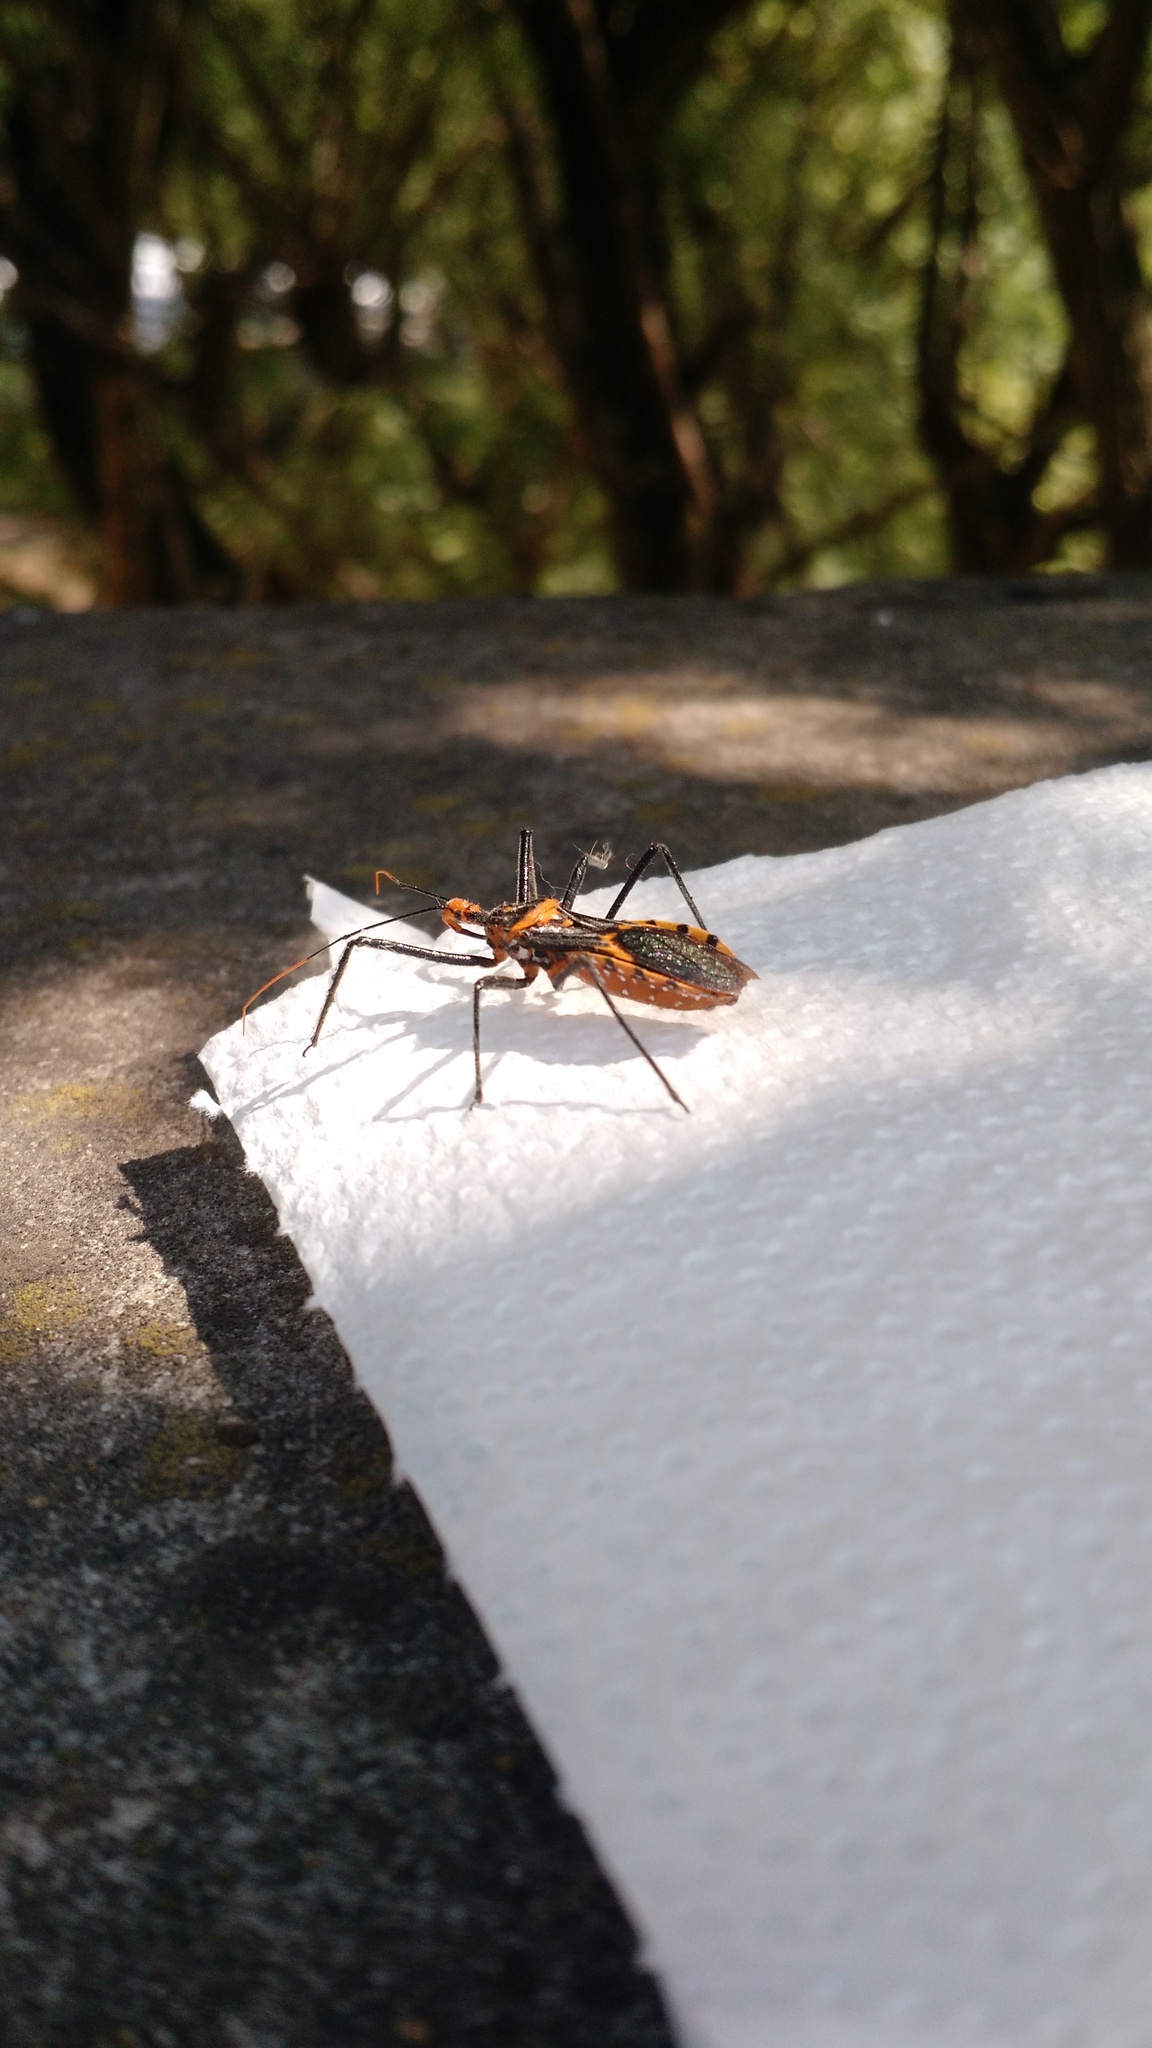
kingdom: Animalia
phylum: Arthropoda
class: Insecta
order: Hemiptera
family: Reduviidae
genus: Zelus
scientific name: Zelus leucogrammus
